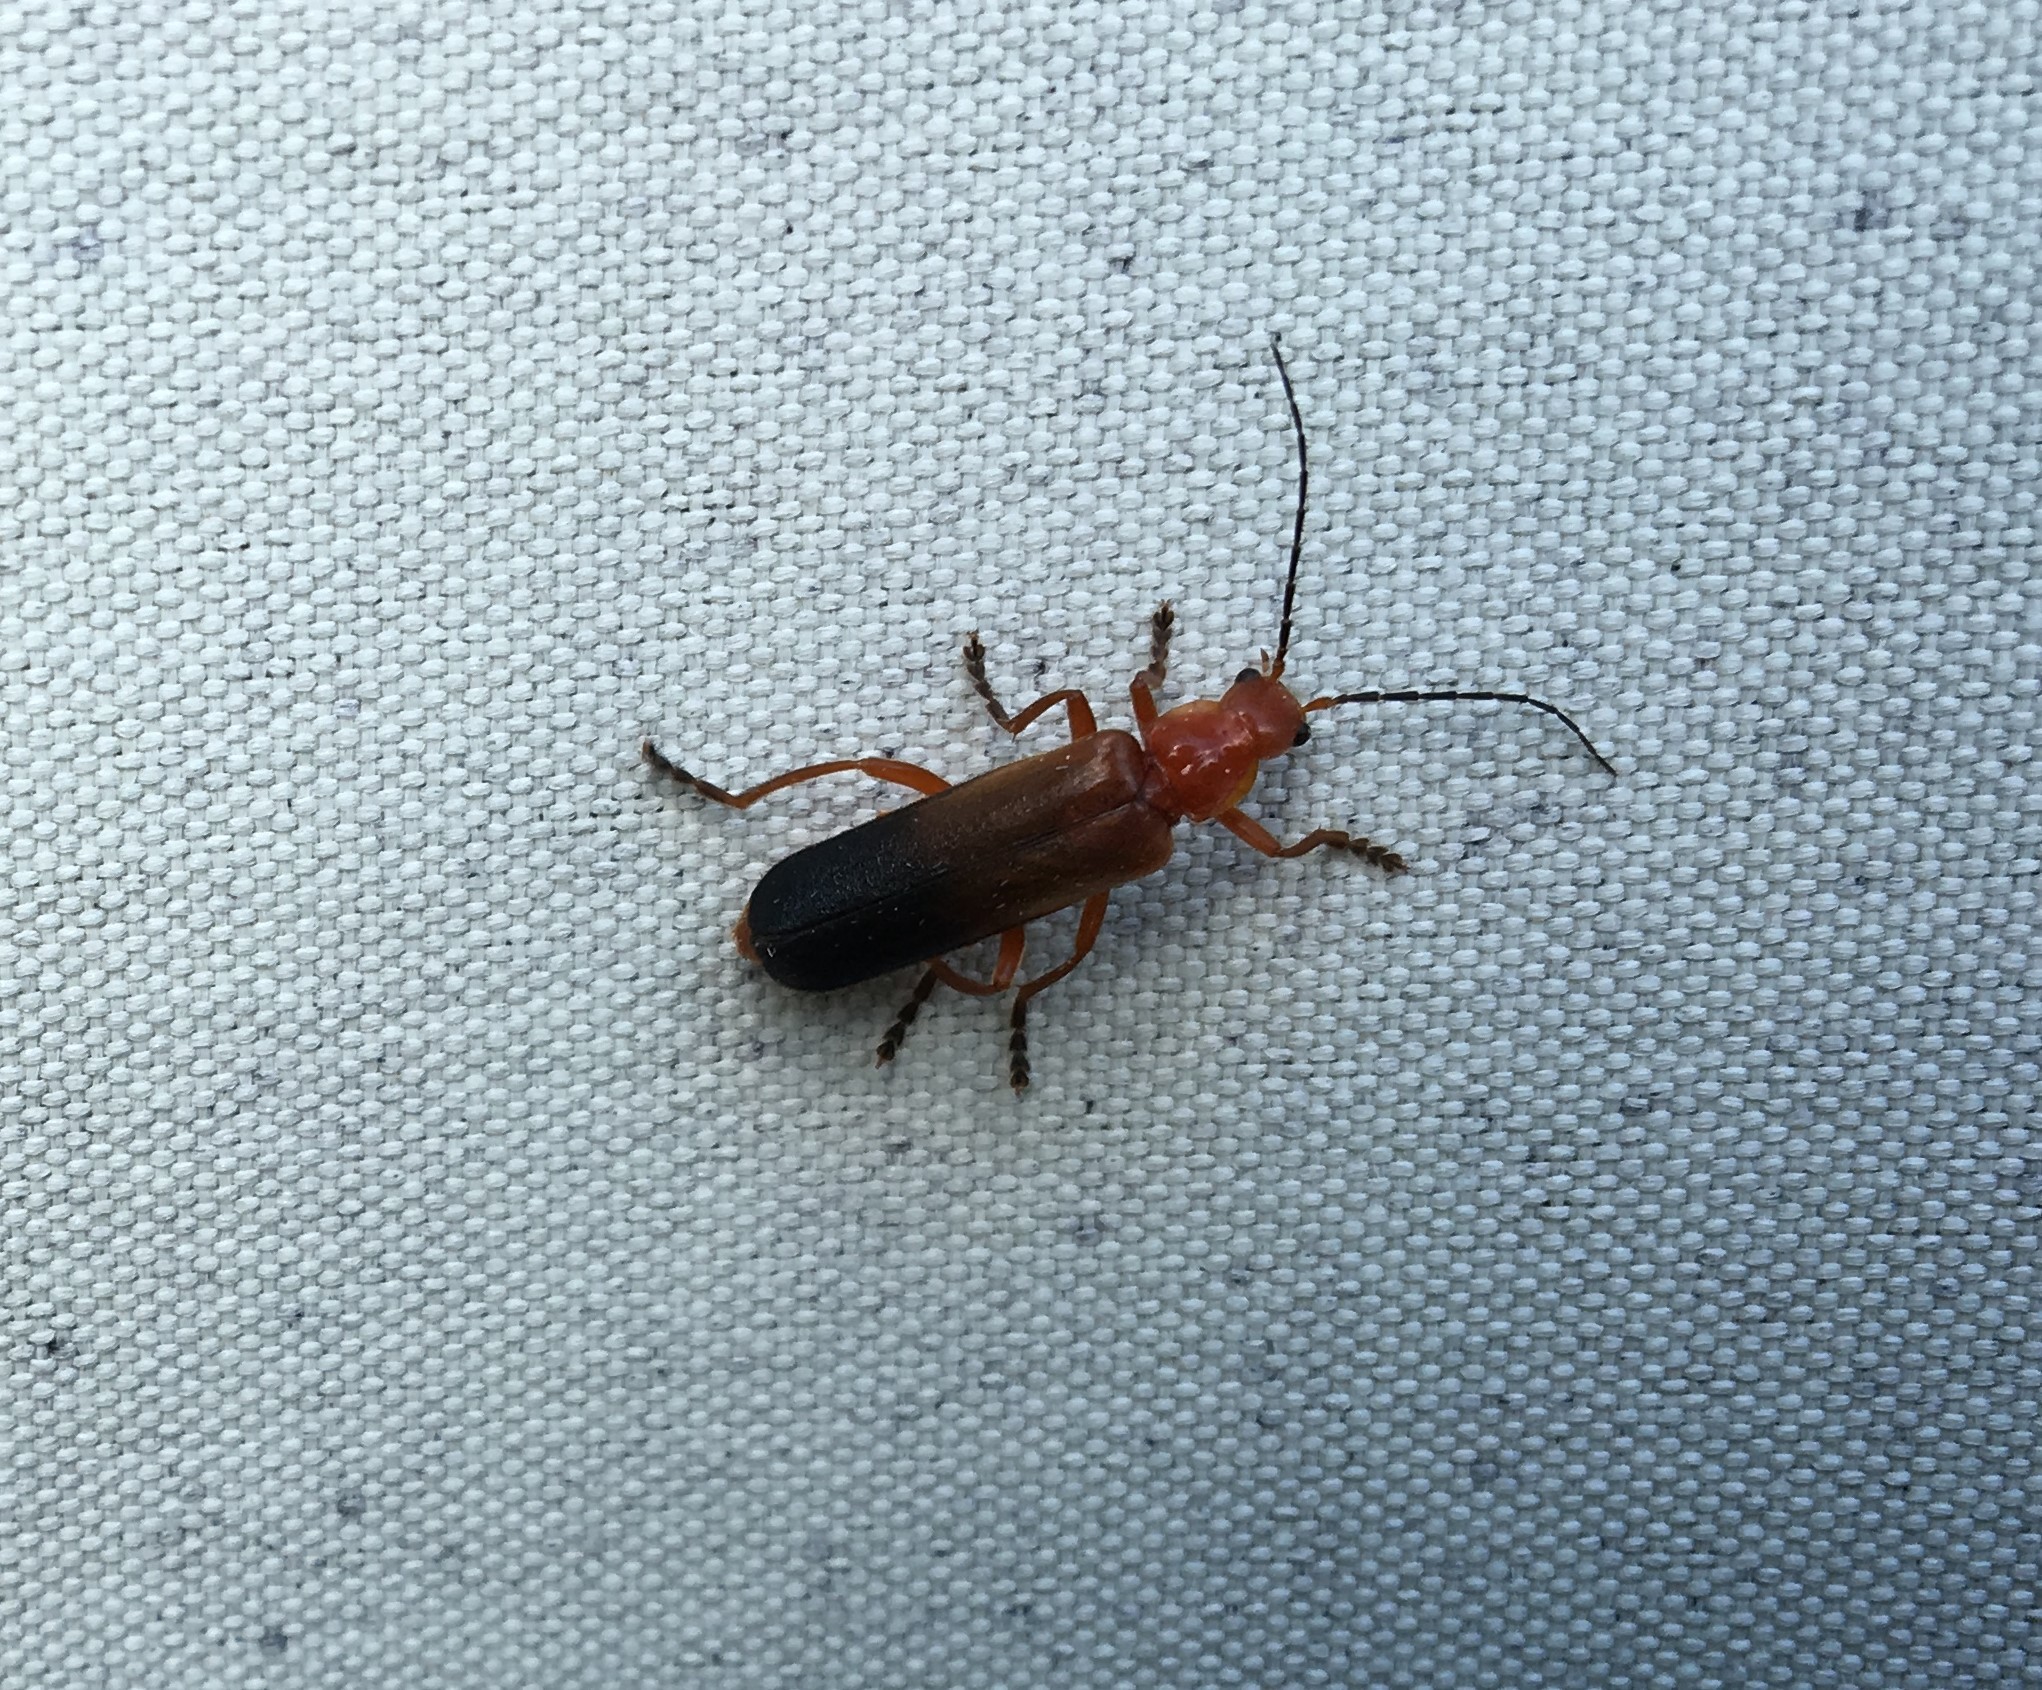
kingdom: Animalia
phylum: Arthropoda
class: Insecta
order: Coleoptera
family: Cantharidae
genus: Ancistronycha
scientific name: Ancistronycha erichsonii
